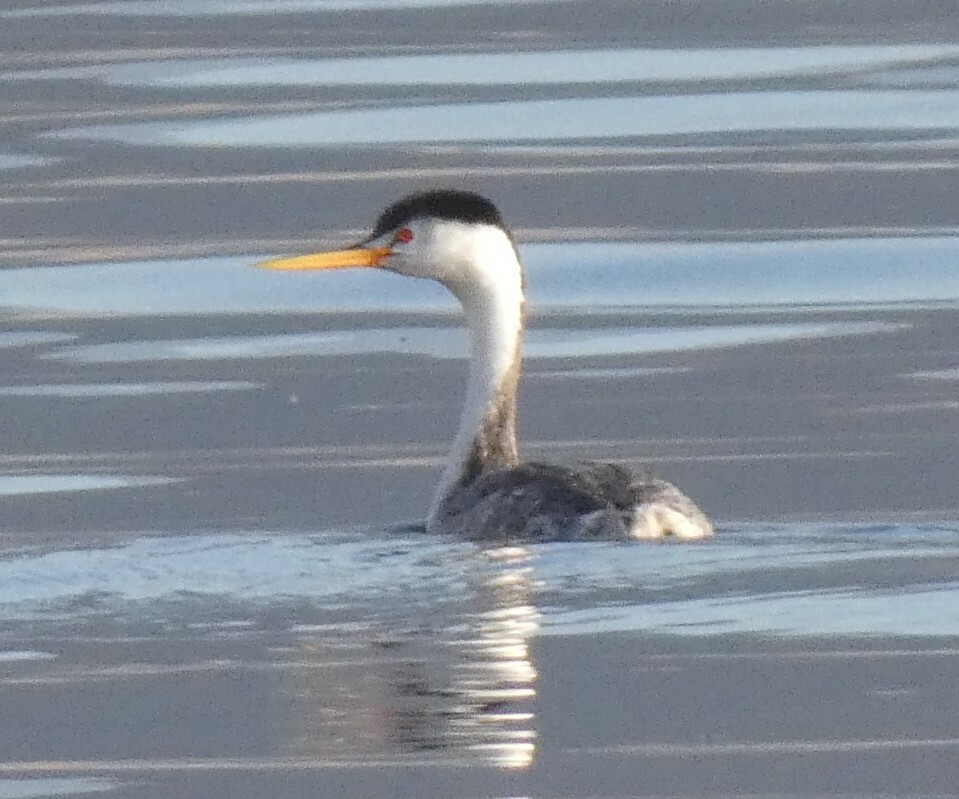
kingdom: Animalia
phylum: Chordata
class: Aves
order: Podicipediformes
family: Podicipedidae
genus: Aechmophorus
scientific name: Aechmophorus clarkii
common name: Clark's grebe
